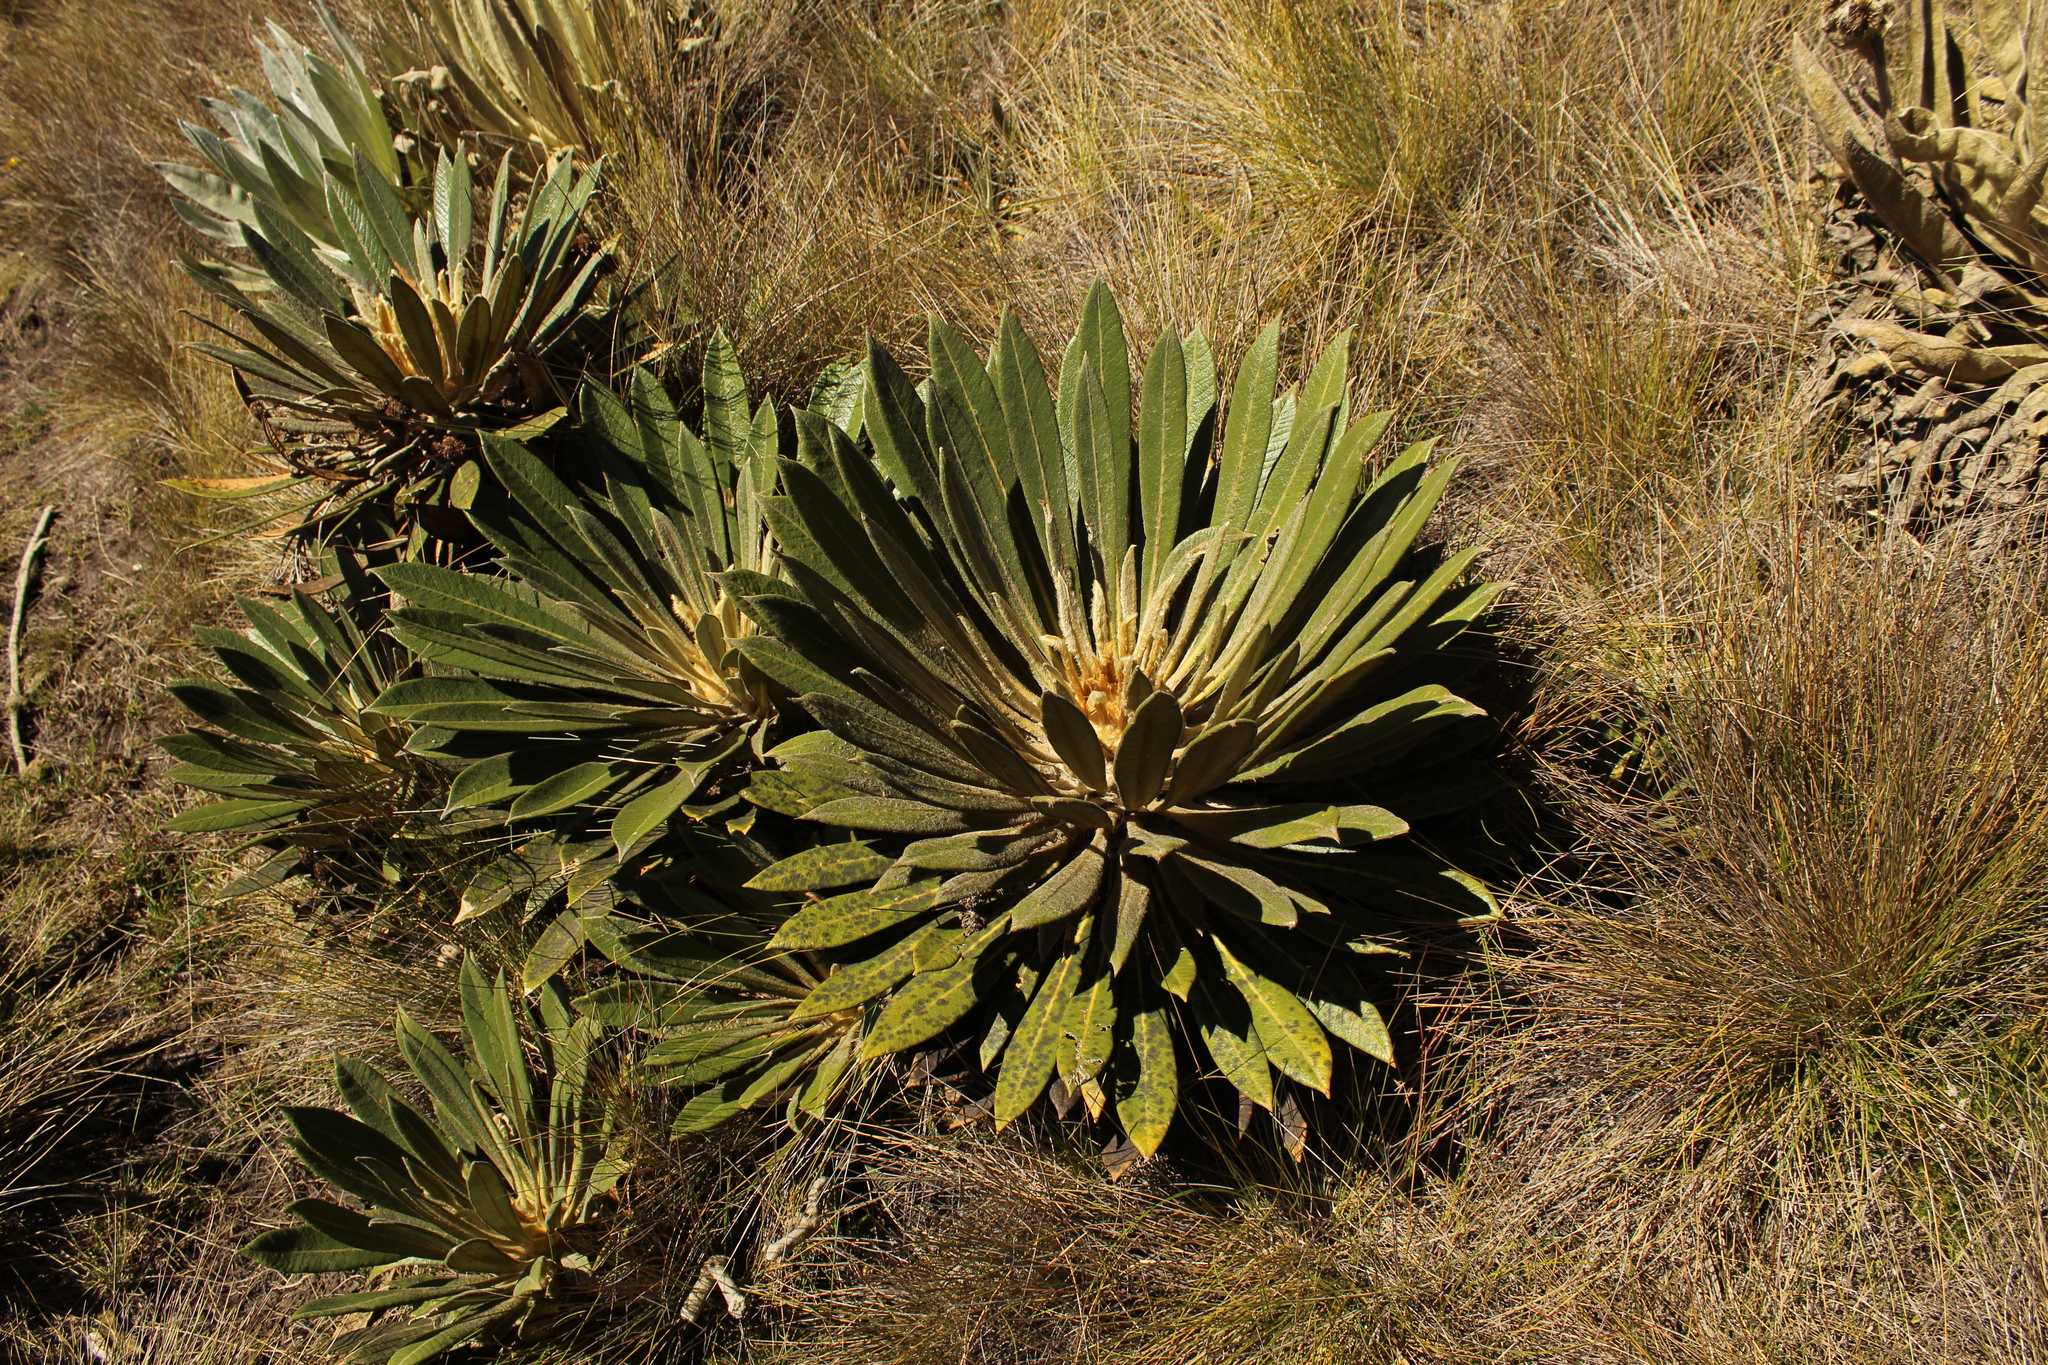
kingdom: Plantae
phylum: Tracheophyta
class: Magnoliopsida
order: Asterales
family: Asteraceae
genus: Espeletia
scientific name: Espeletia guacharaca
